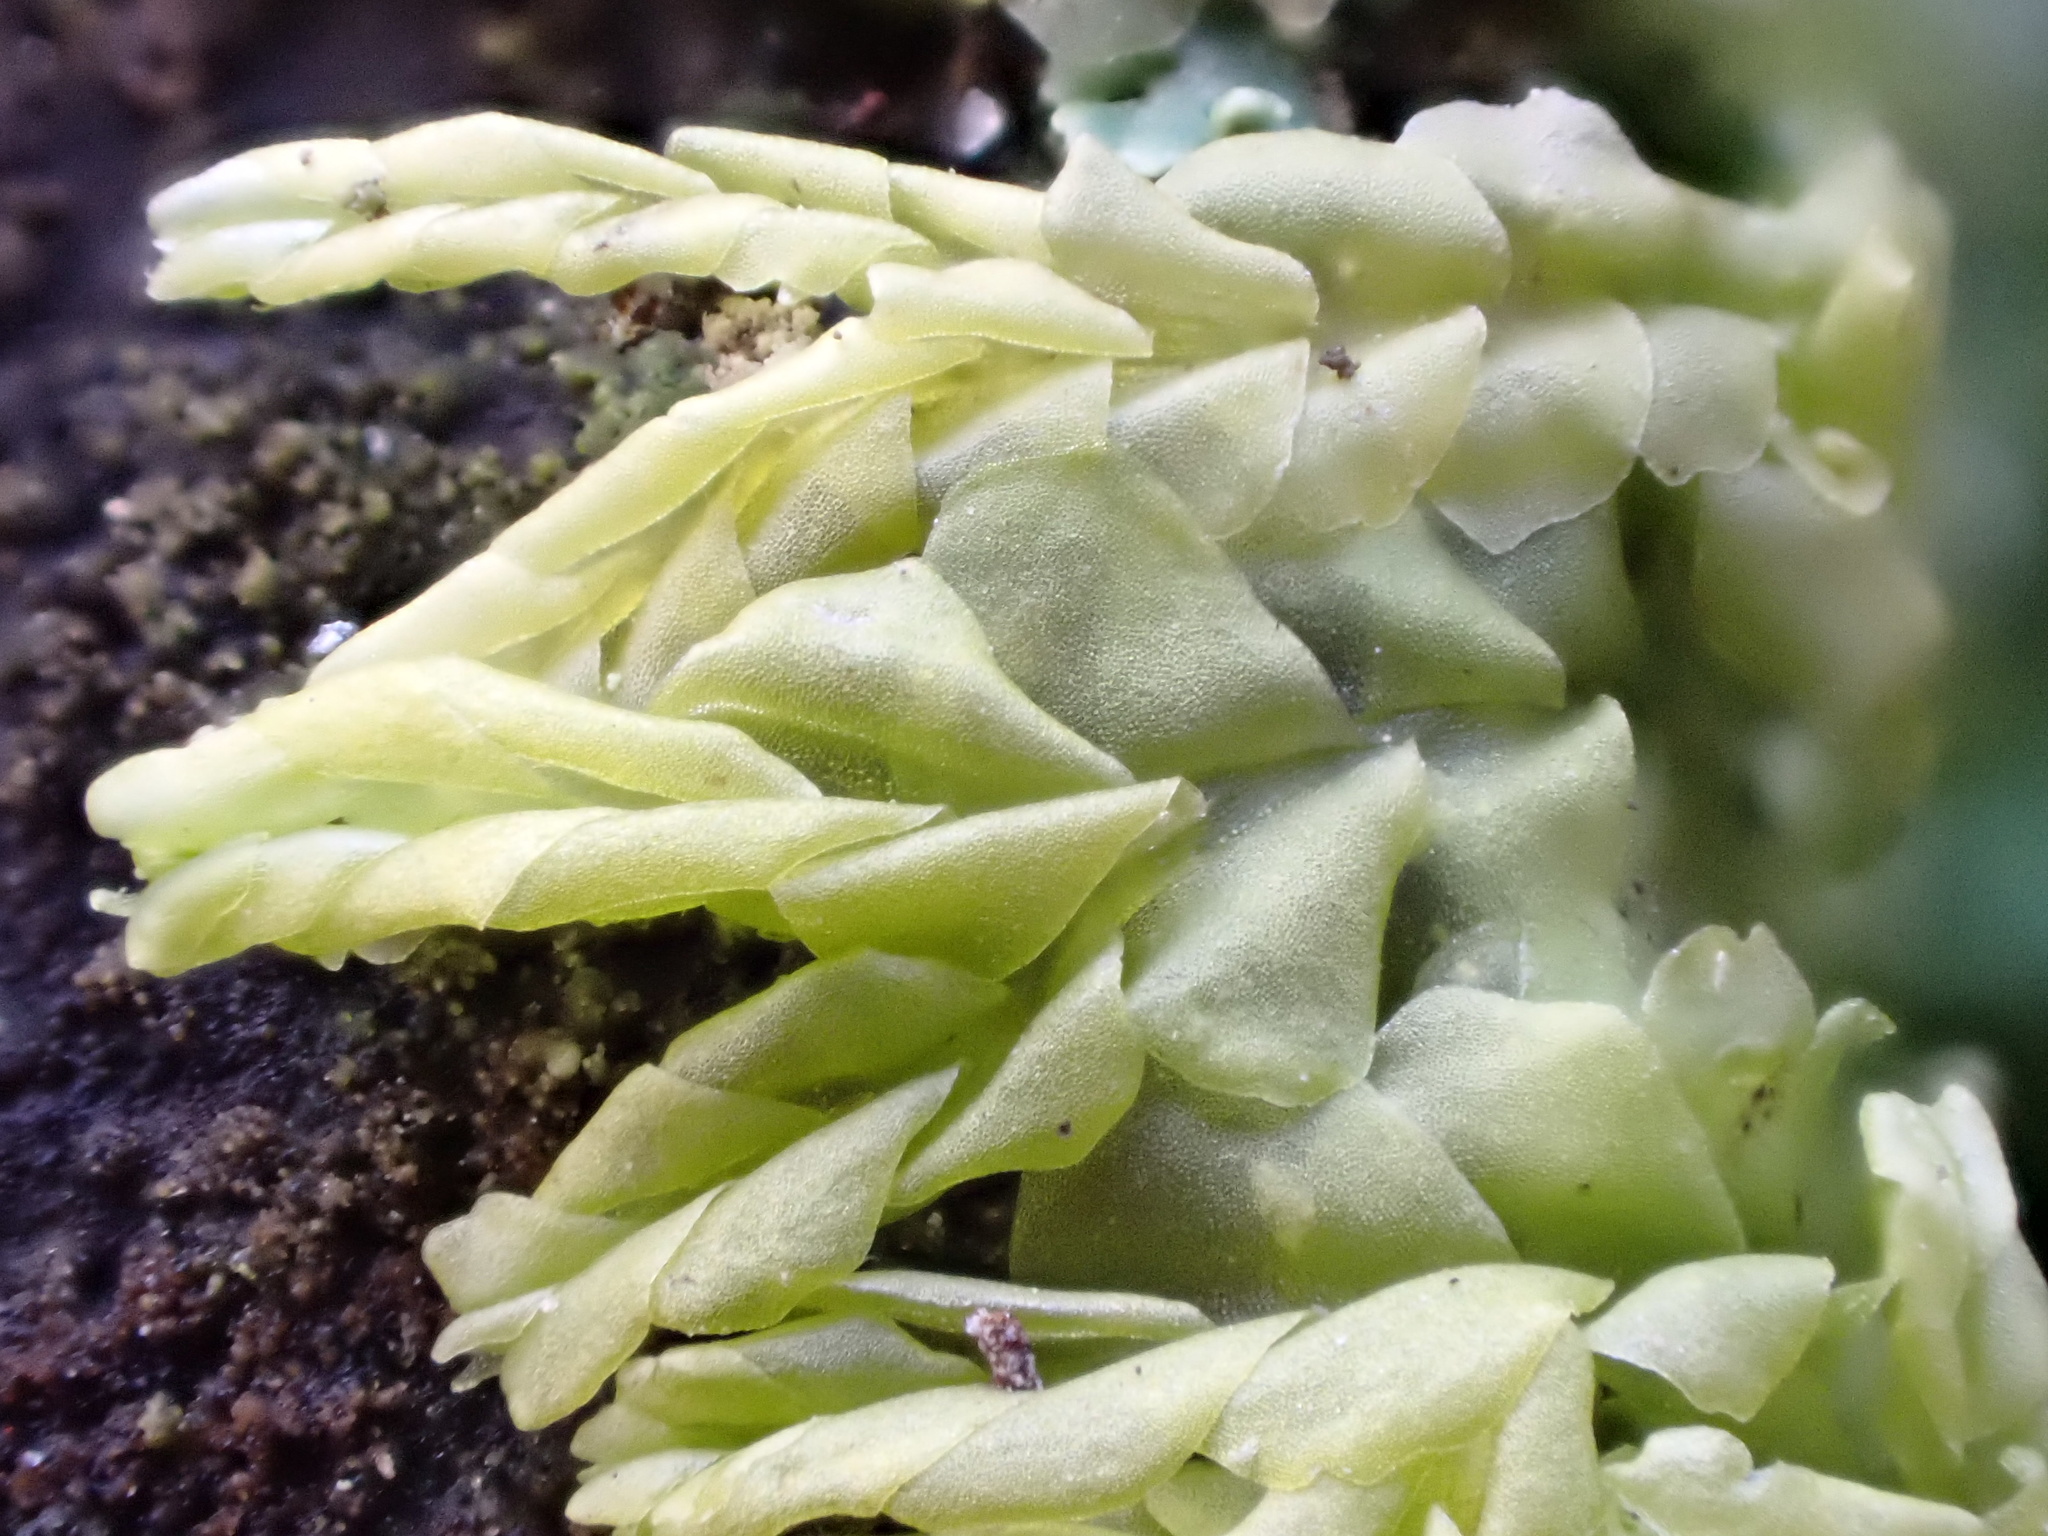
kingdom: Plantae
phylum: Marchantiophyta
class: Jungermanniopsida
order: Jungermanniales
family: Lophocoleaceae
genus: Lophocolea
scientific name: Lophocolea heterophylla
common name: Variable-leaved crestwort
